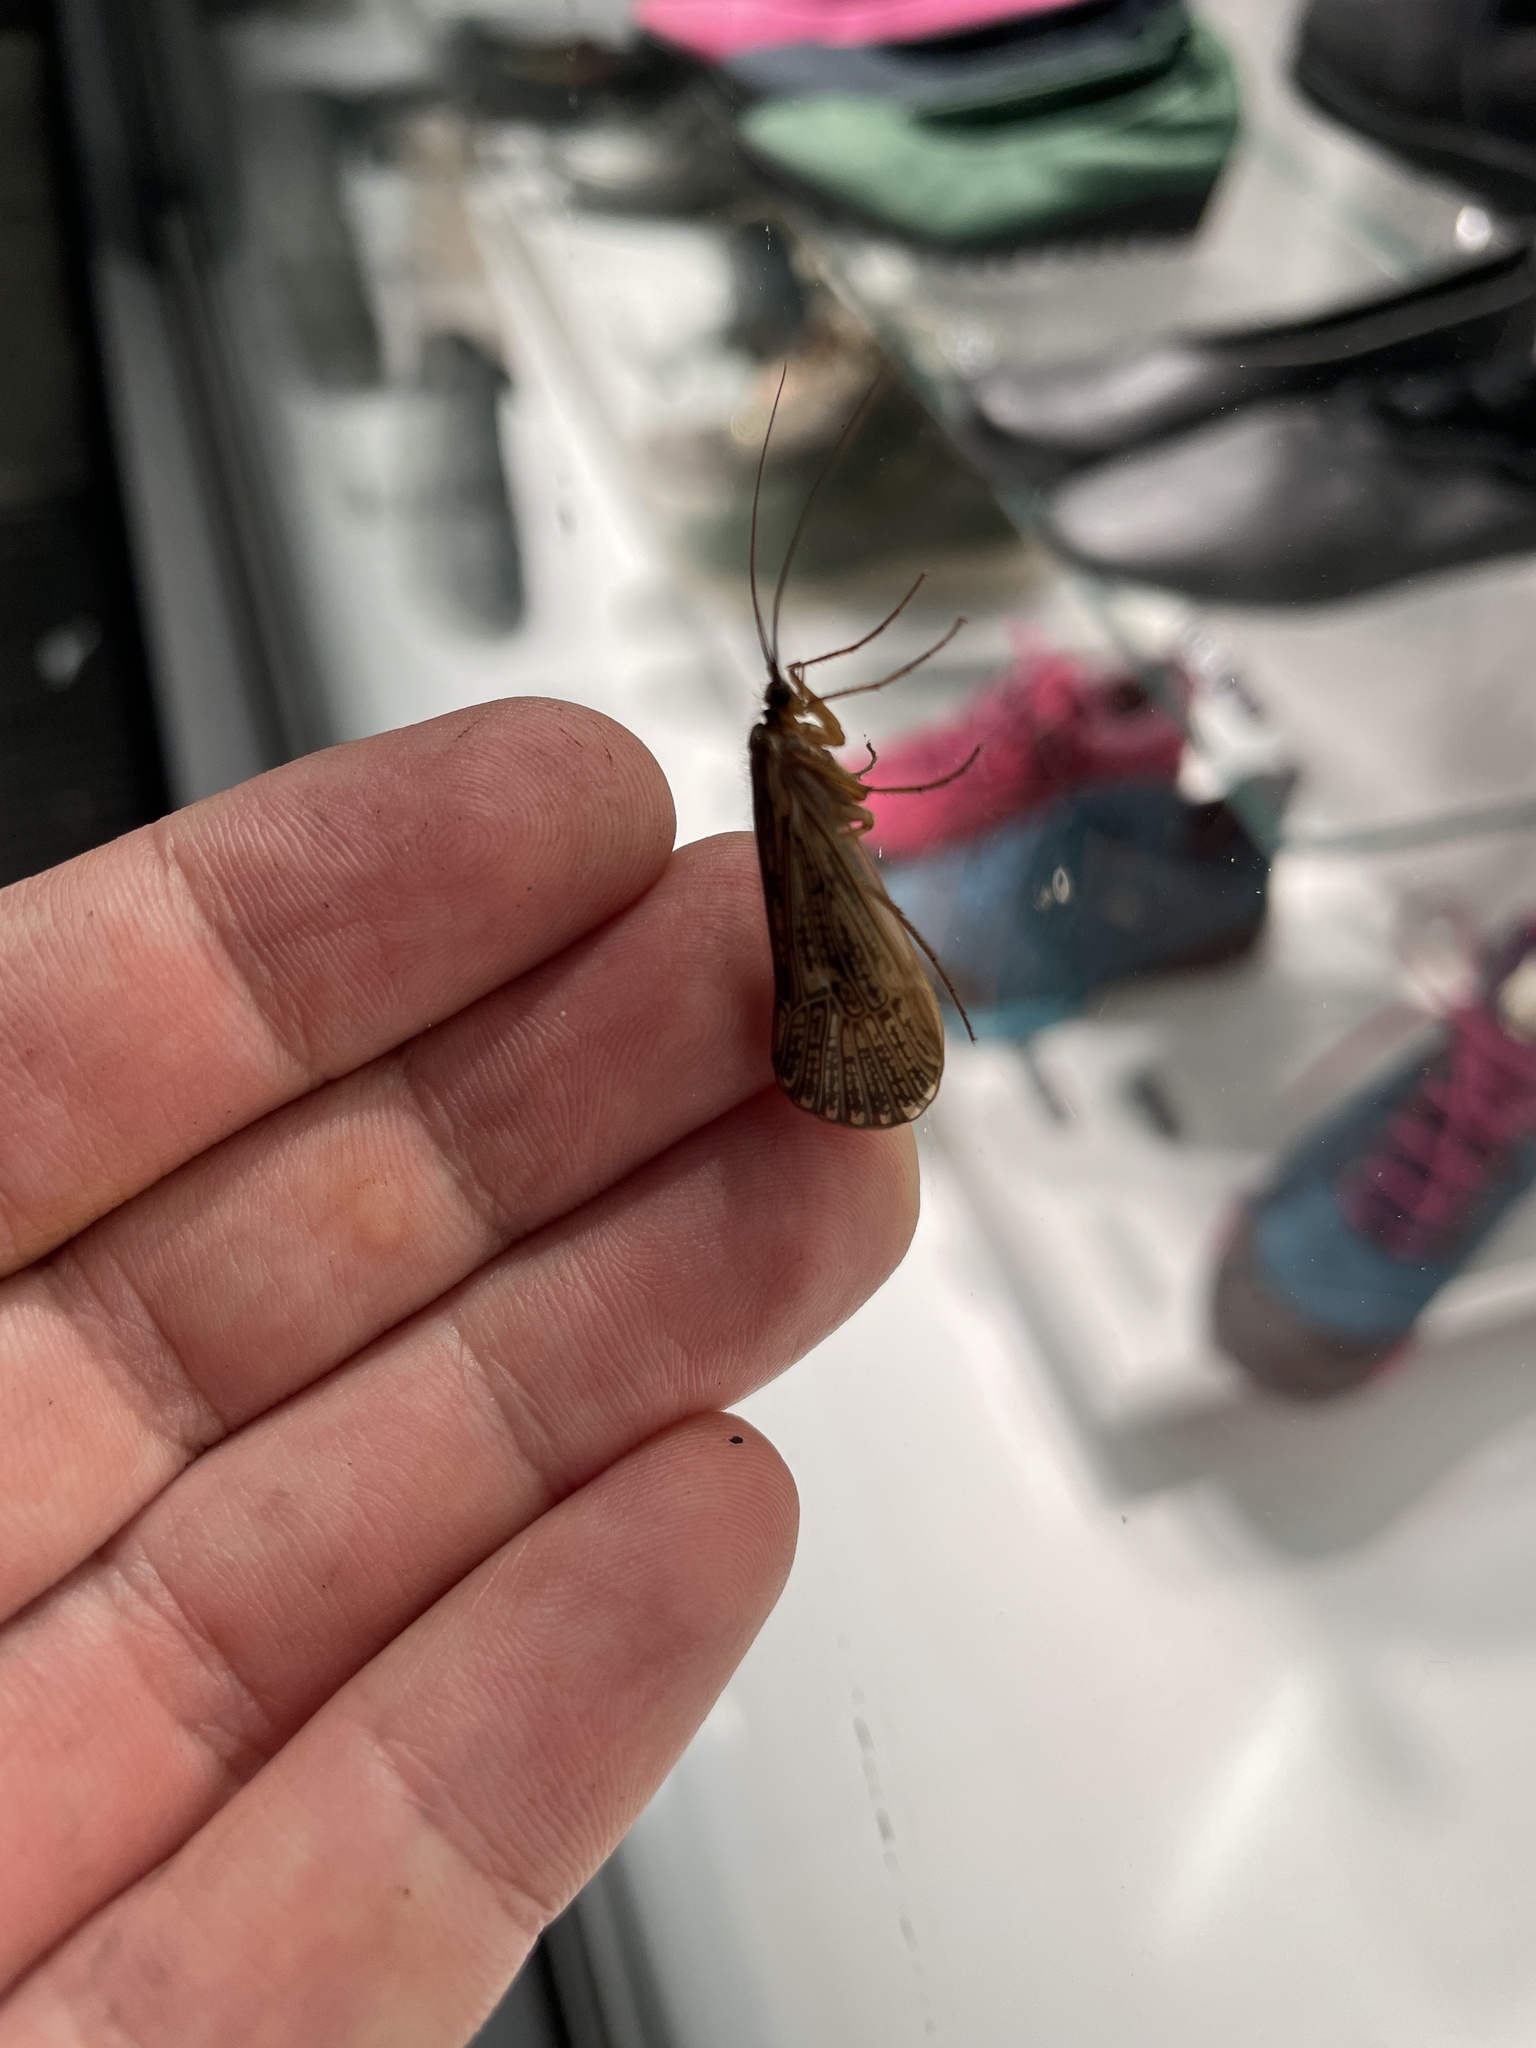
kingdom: Animalia
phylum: Arthropoda
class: Insecta
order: Trichoptera
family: Limnephilidae
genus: Halesus
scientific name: Halesus
